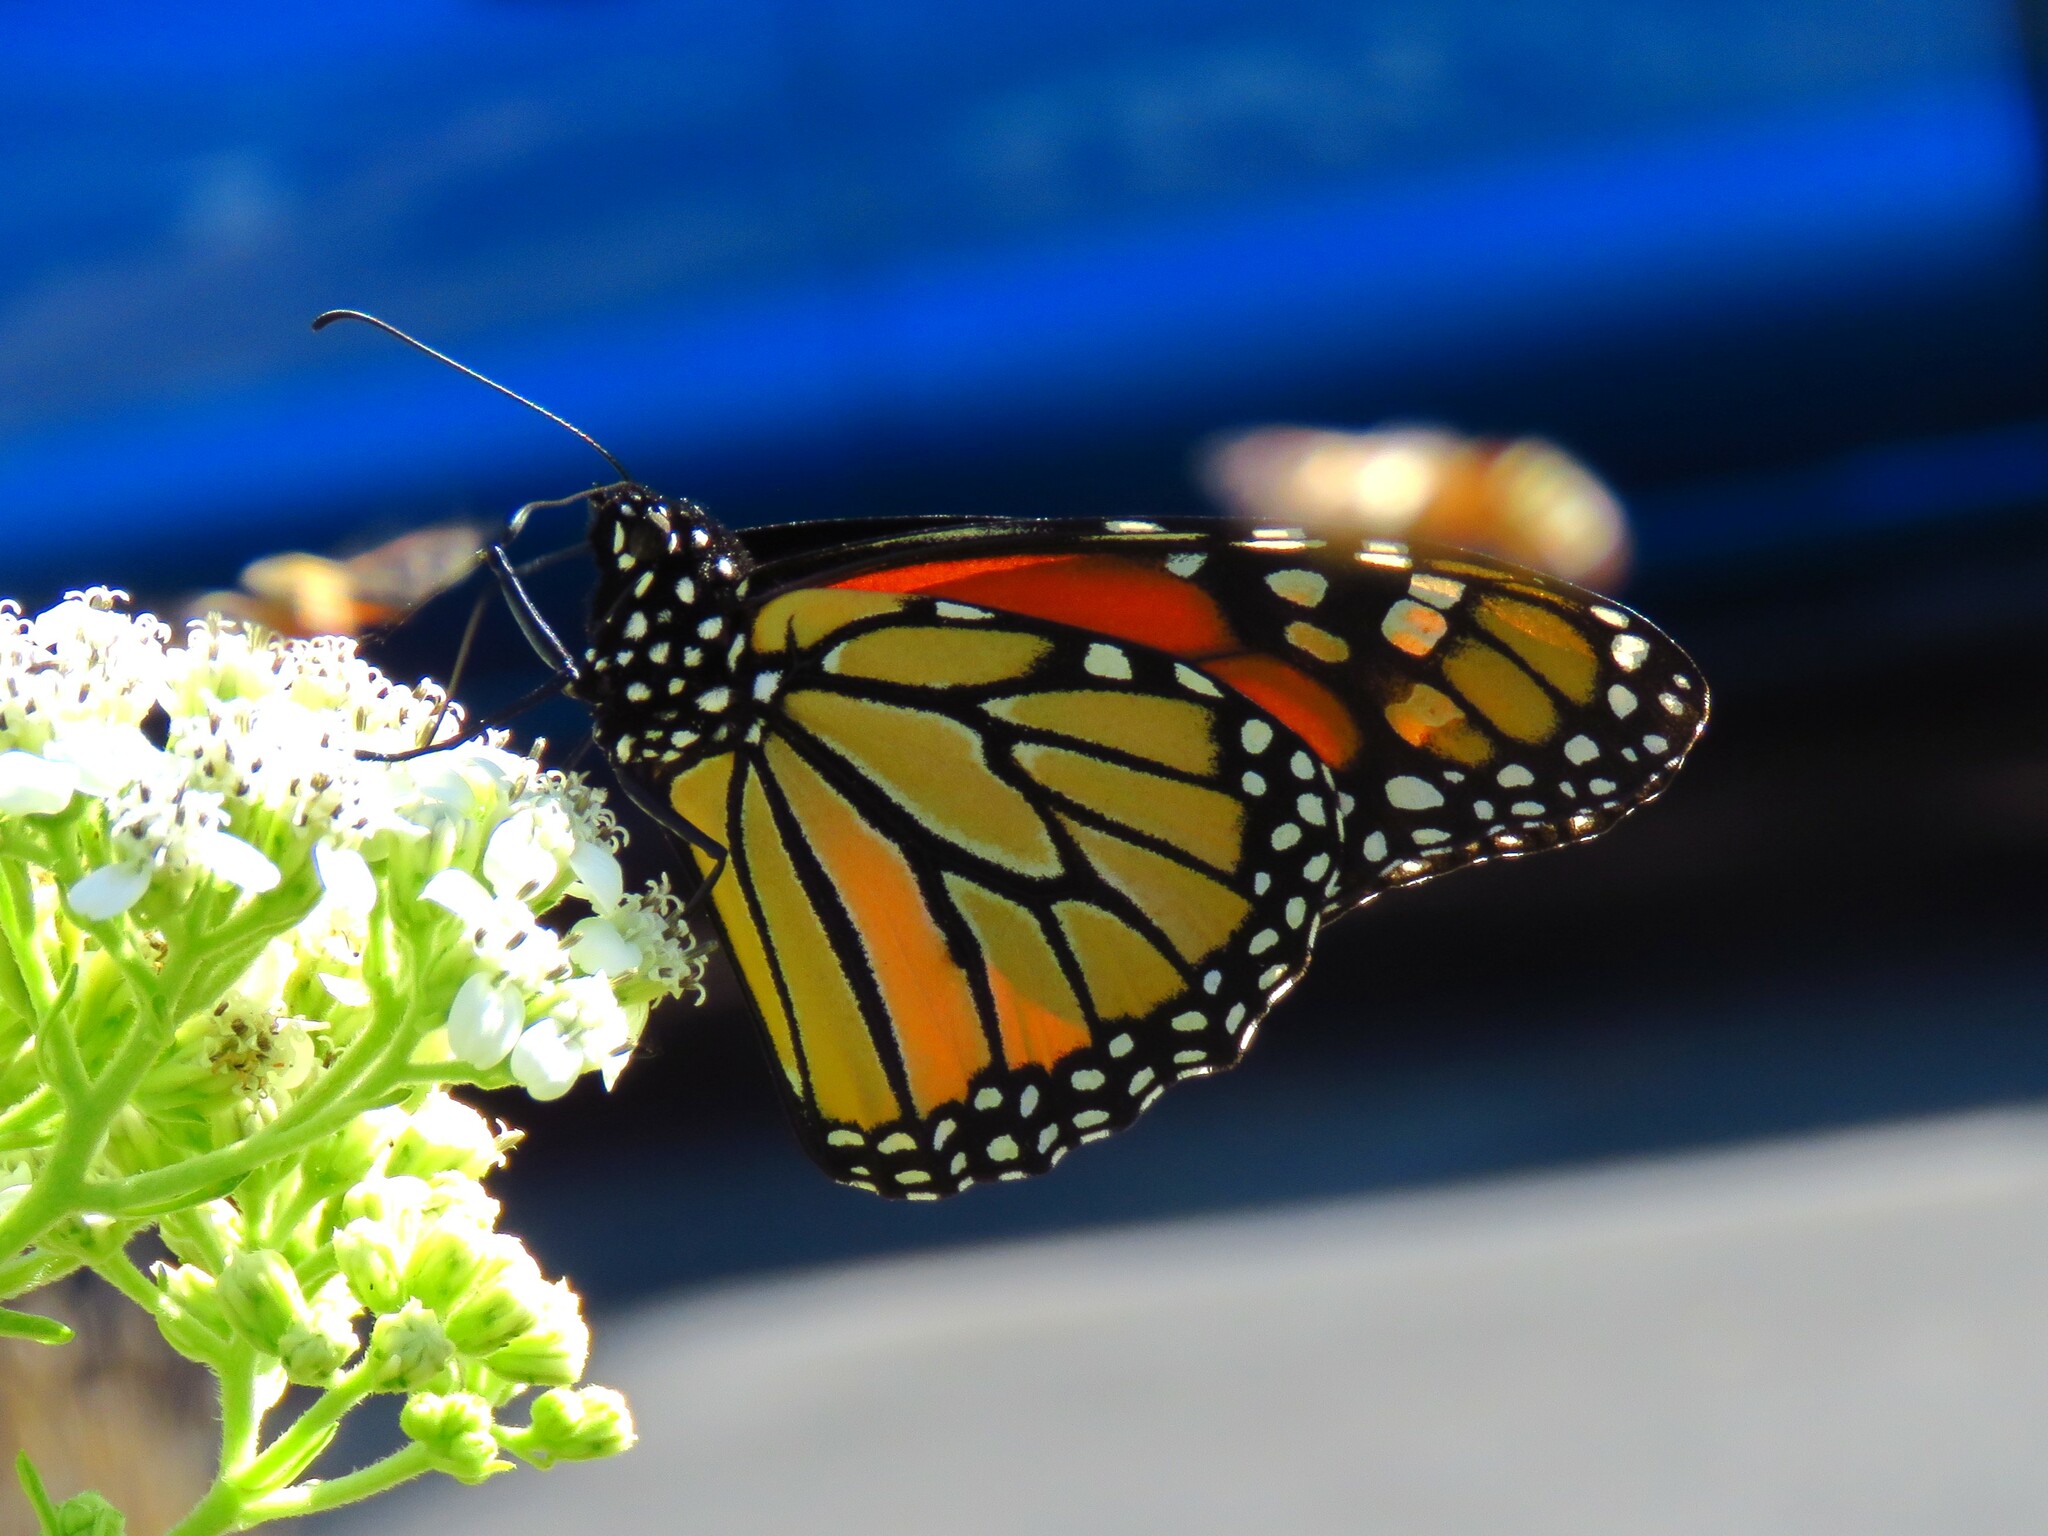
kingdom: Animalia
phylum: Arthropoda
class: Insecta
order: Lepidoptera
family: Nymphalidae
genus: Danaus
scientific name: Danaus plexippus
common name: Monarch
